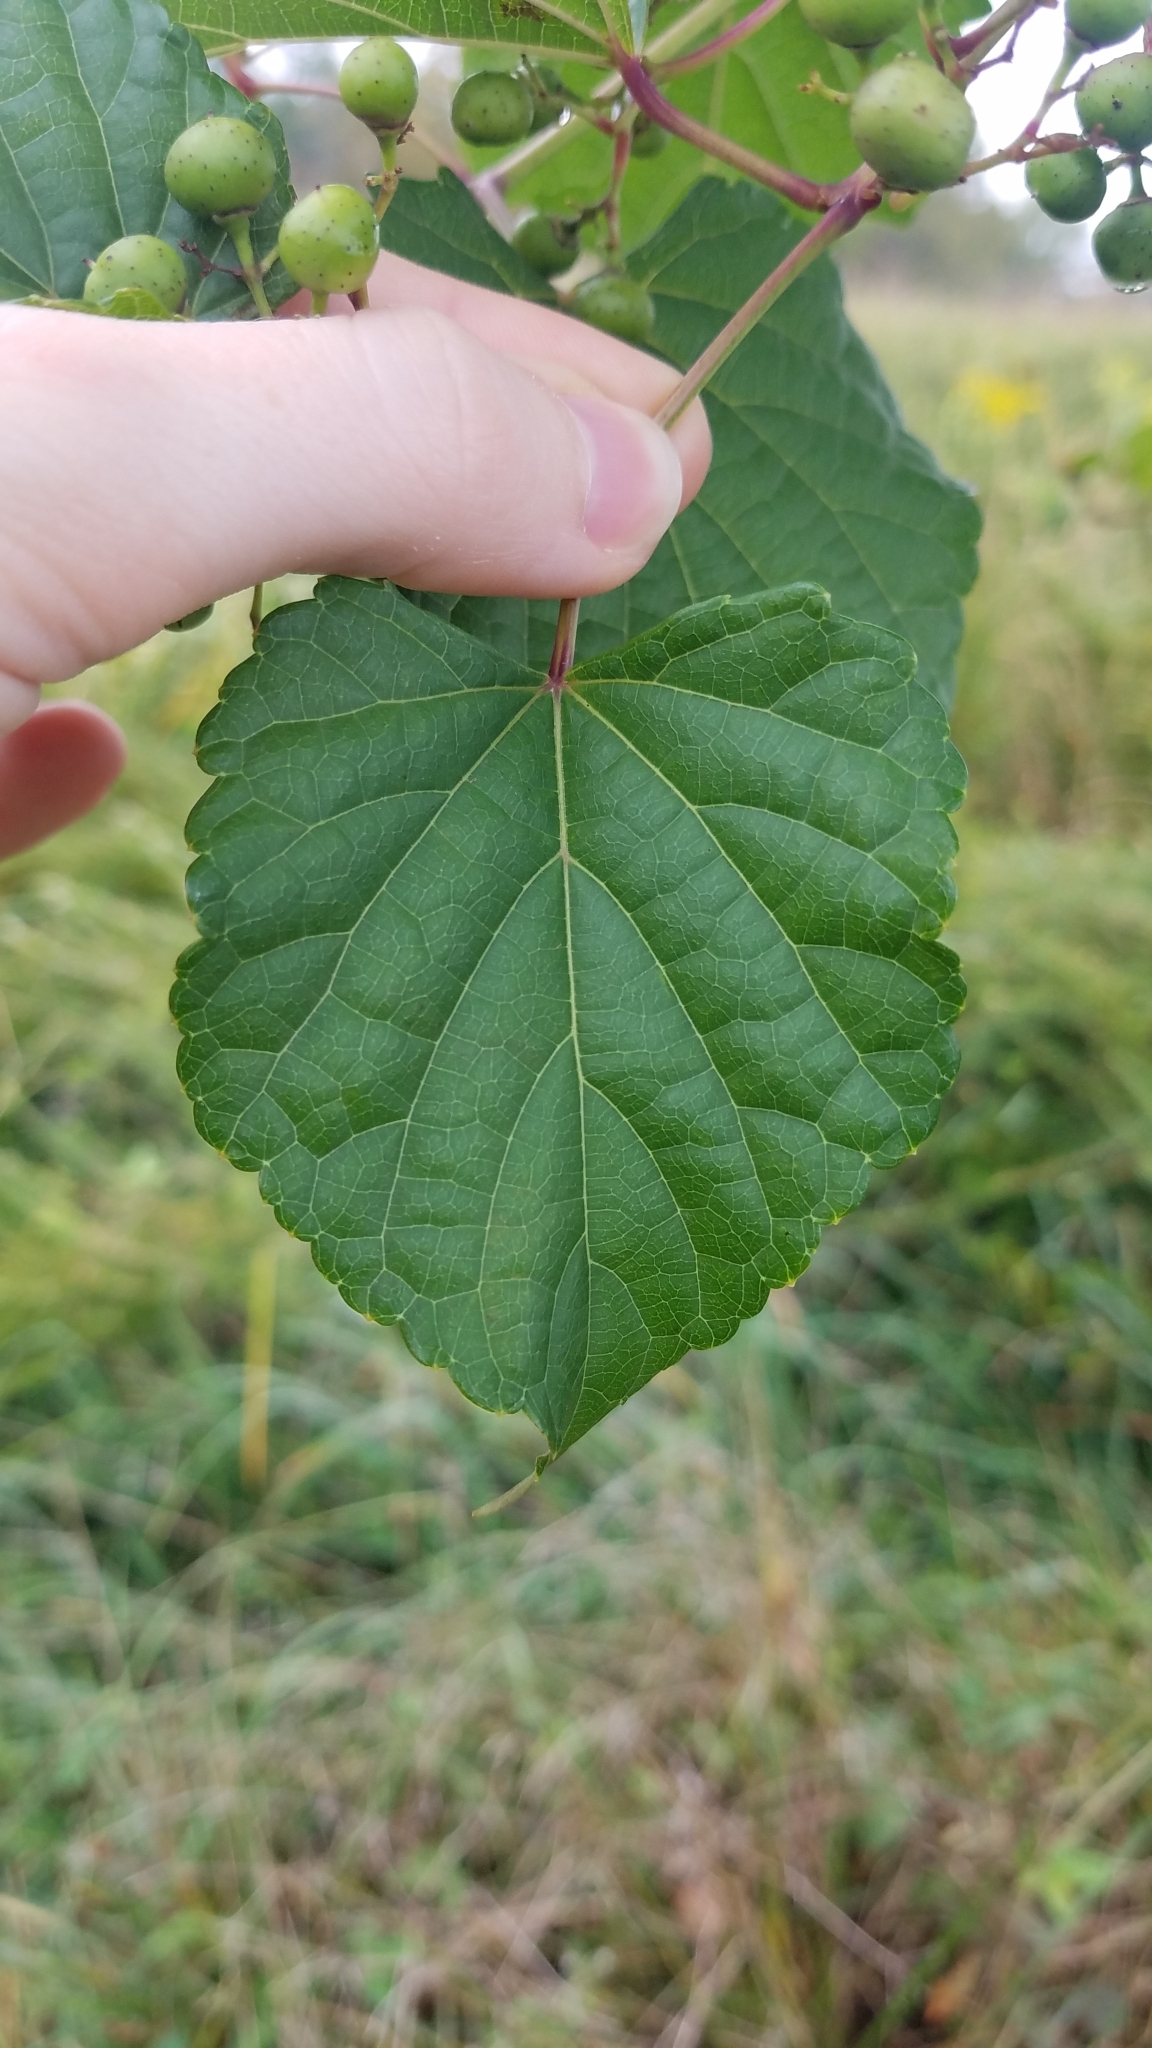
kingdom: Plantae
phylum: Tracheophyta
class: Magnoliopsida
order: Vitales
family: Vitaceae
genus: Ampelopsis
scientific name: Ampelopsis glandulosa
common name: Amur peppervine
